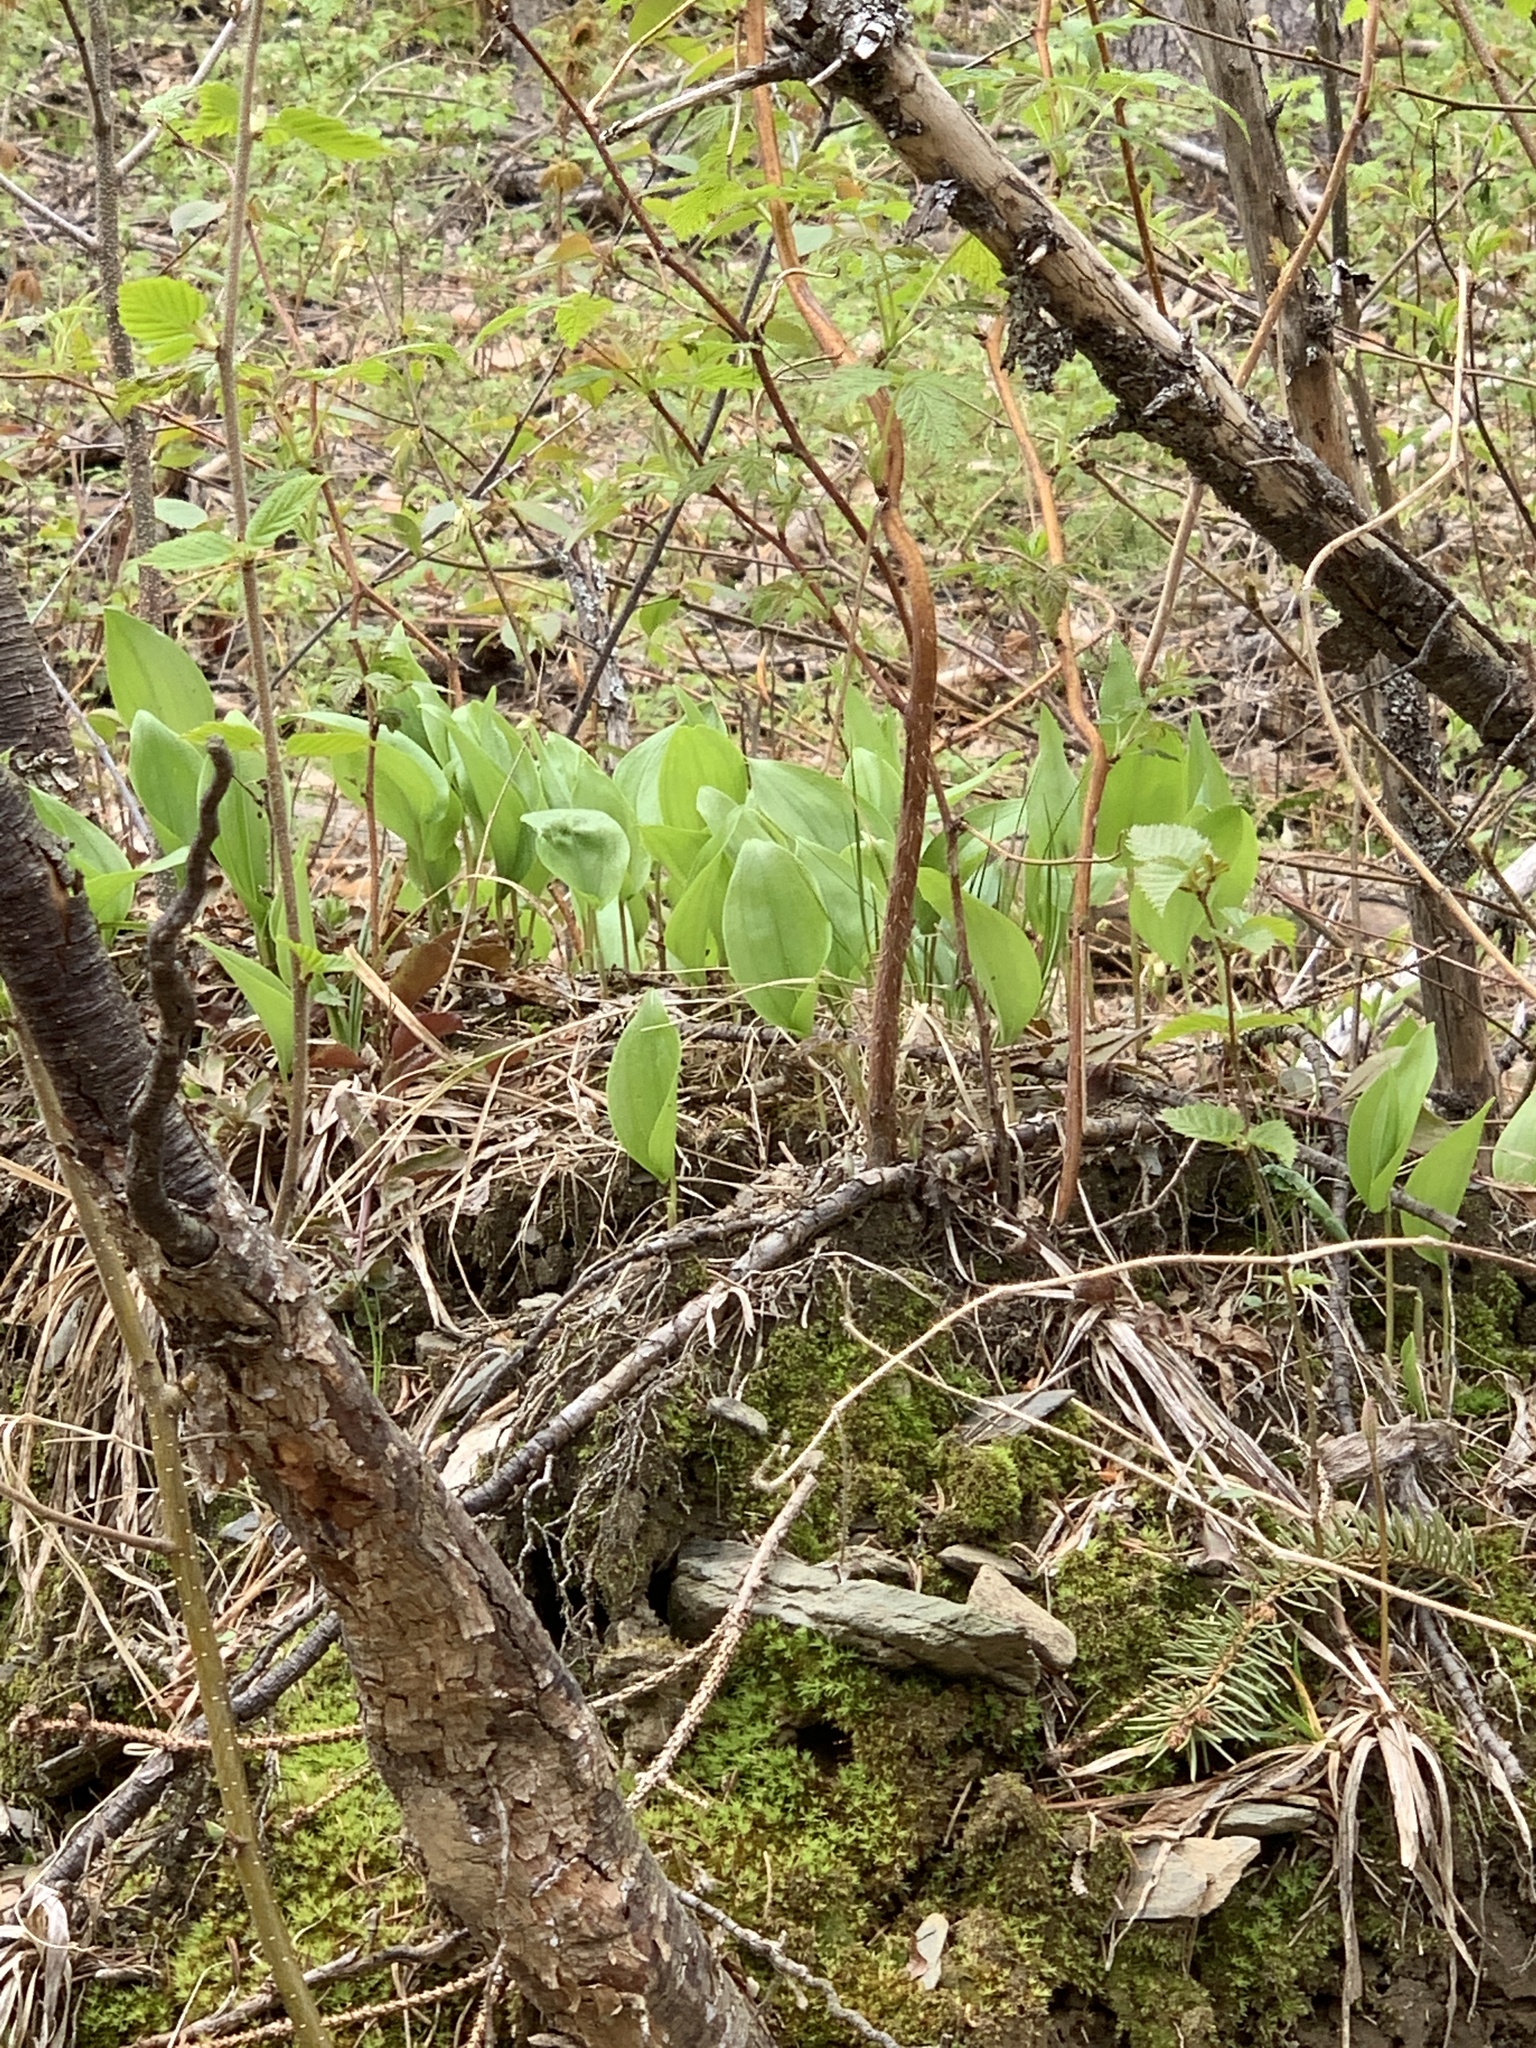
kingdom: Plantae
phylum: Tracheophyta
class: Liliopsida
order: Asparagales
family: Asparagaceae
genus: Maianthemum
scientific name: Maianthemum canadense
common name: False lily-of-the-valley
